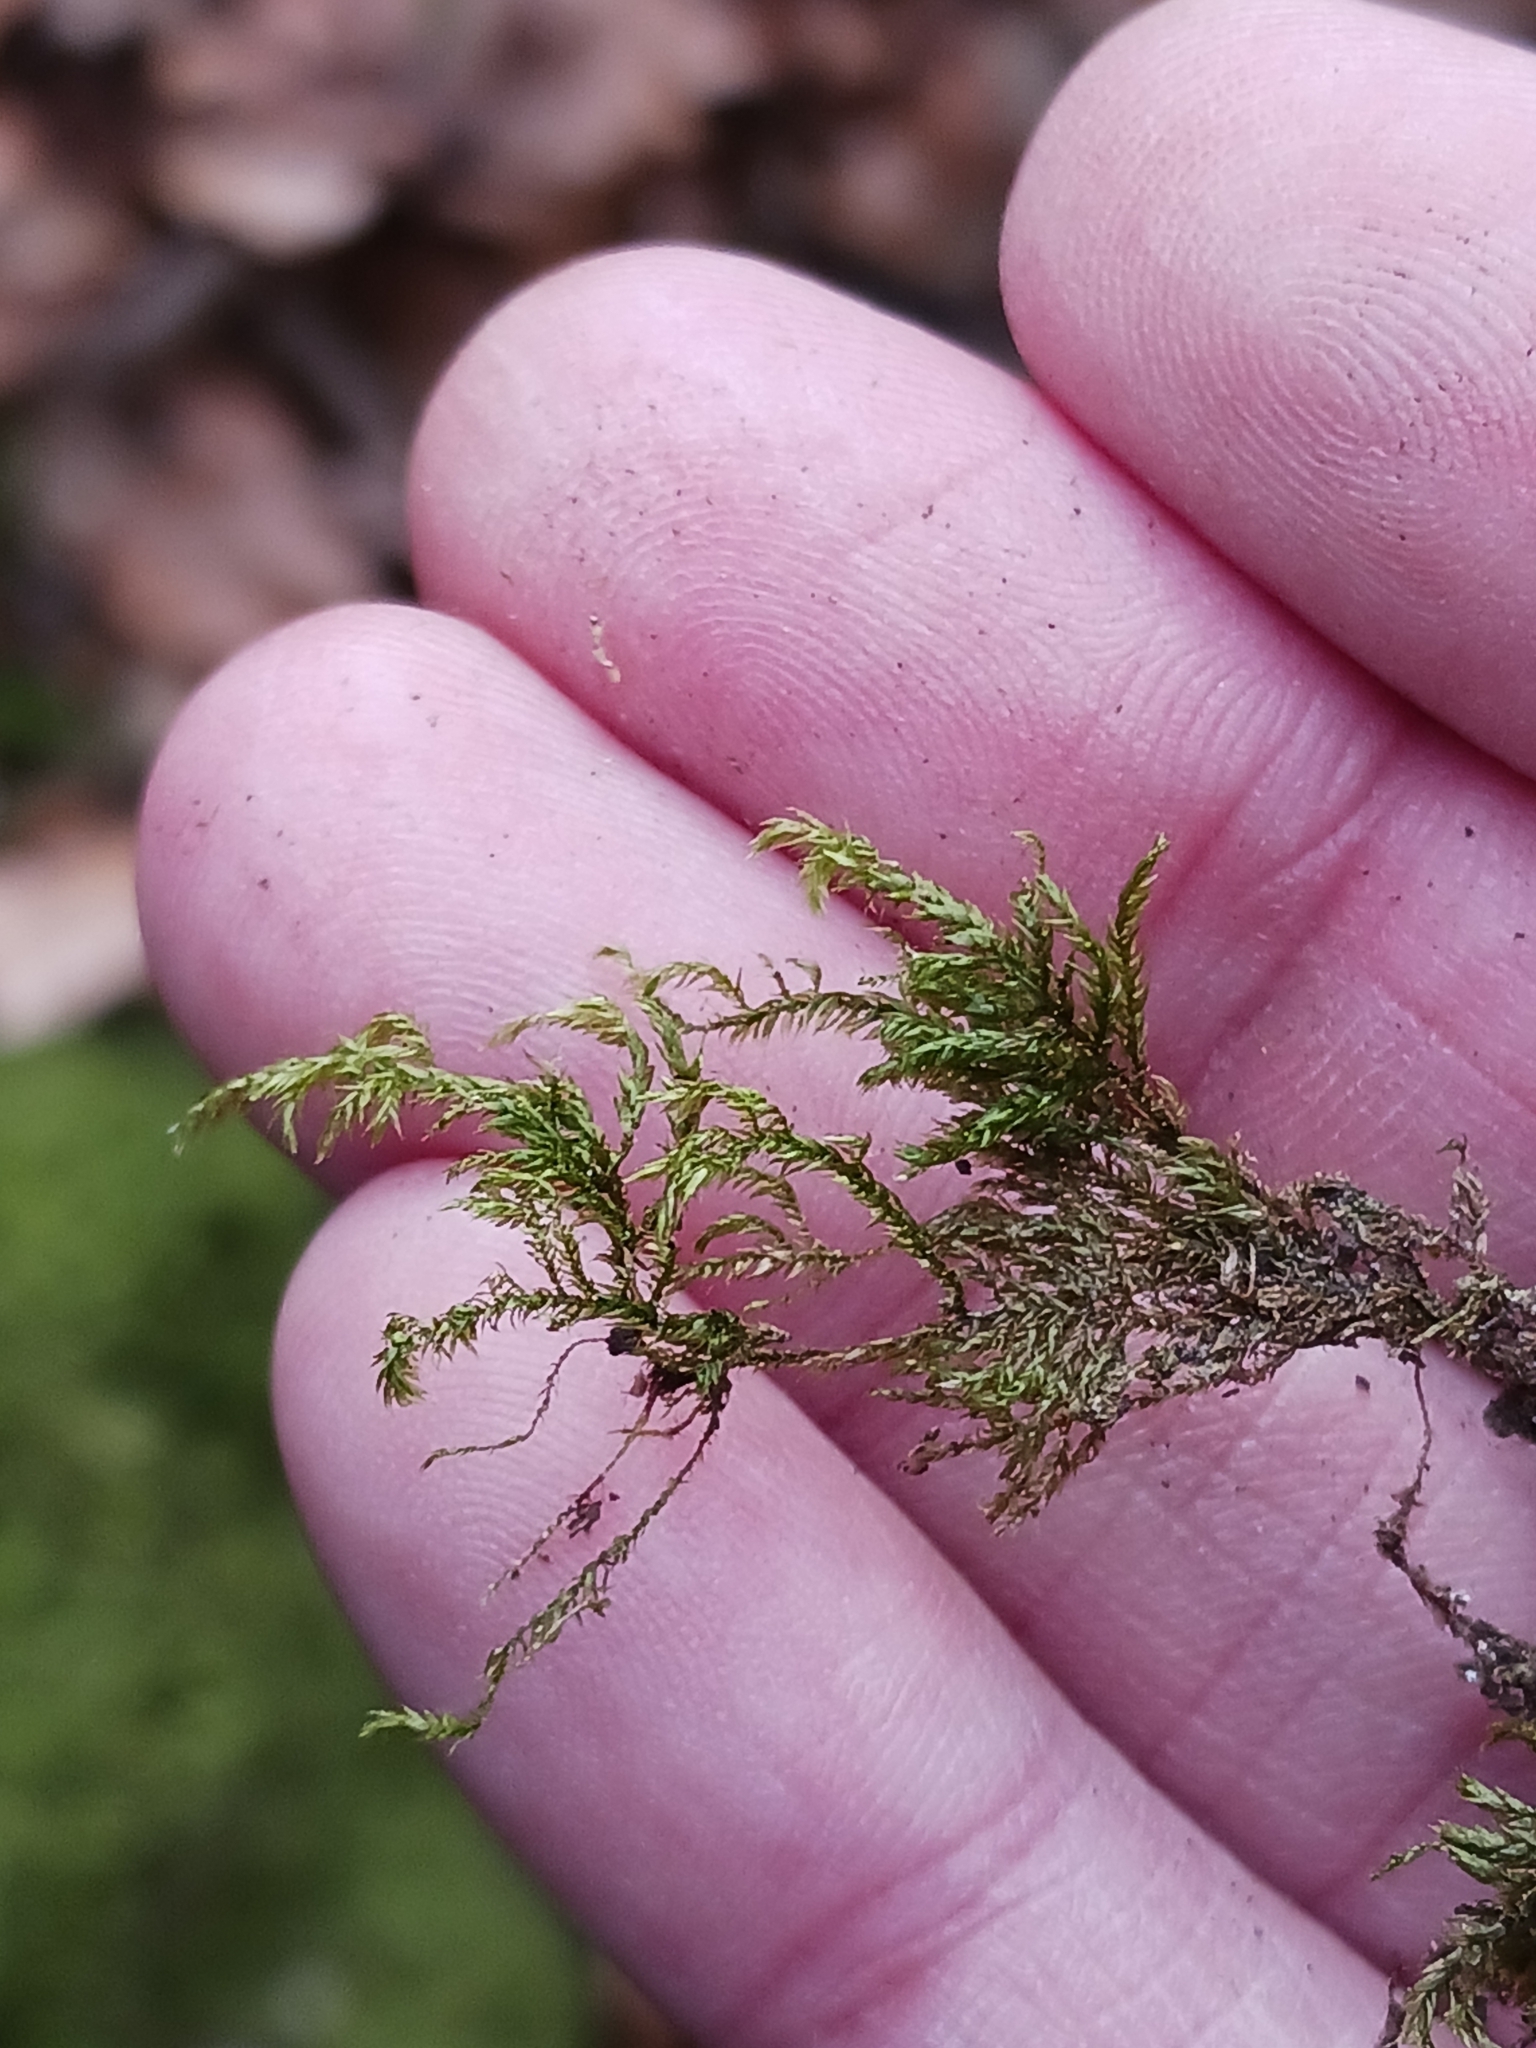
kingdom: Plantae
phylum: Bryophyta
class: Bryopsida
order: Hypnales
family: Lembophyllaceae
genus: Pseudisothecium
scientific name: Pseudisothecium myosuroides
